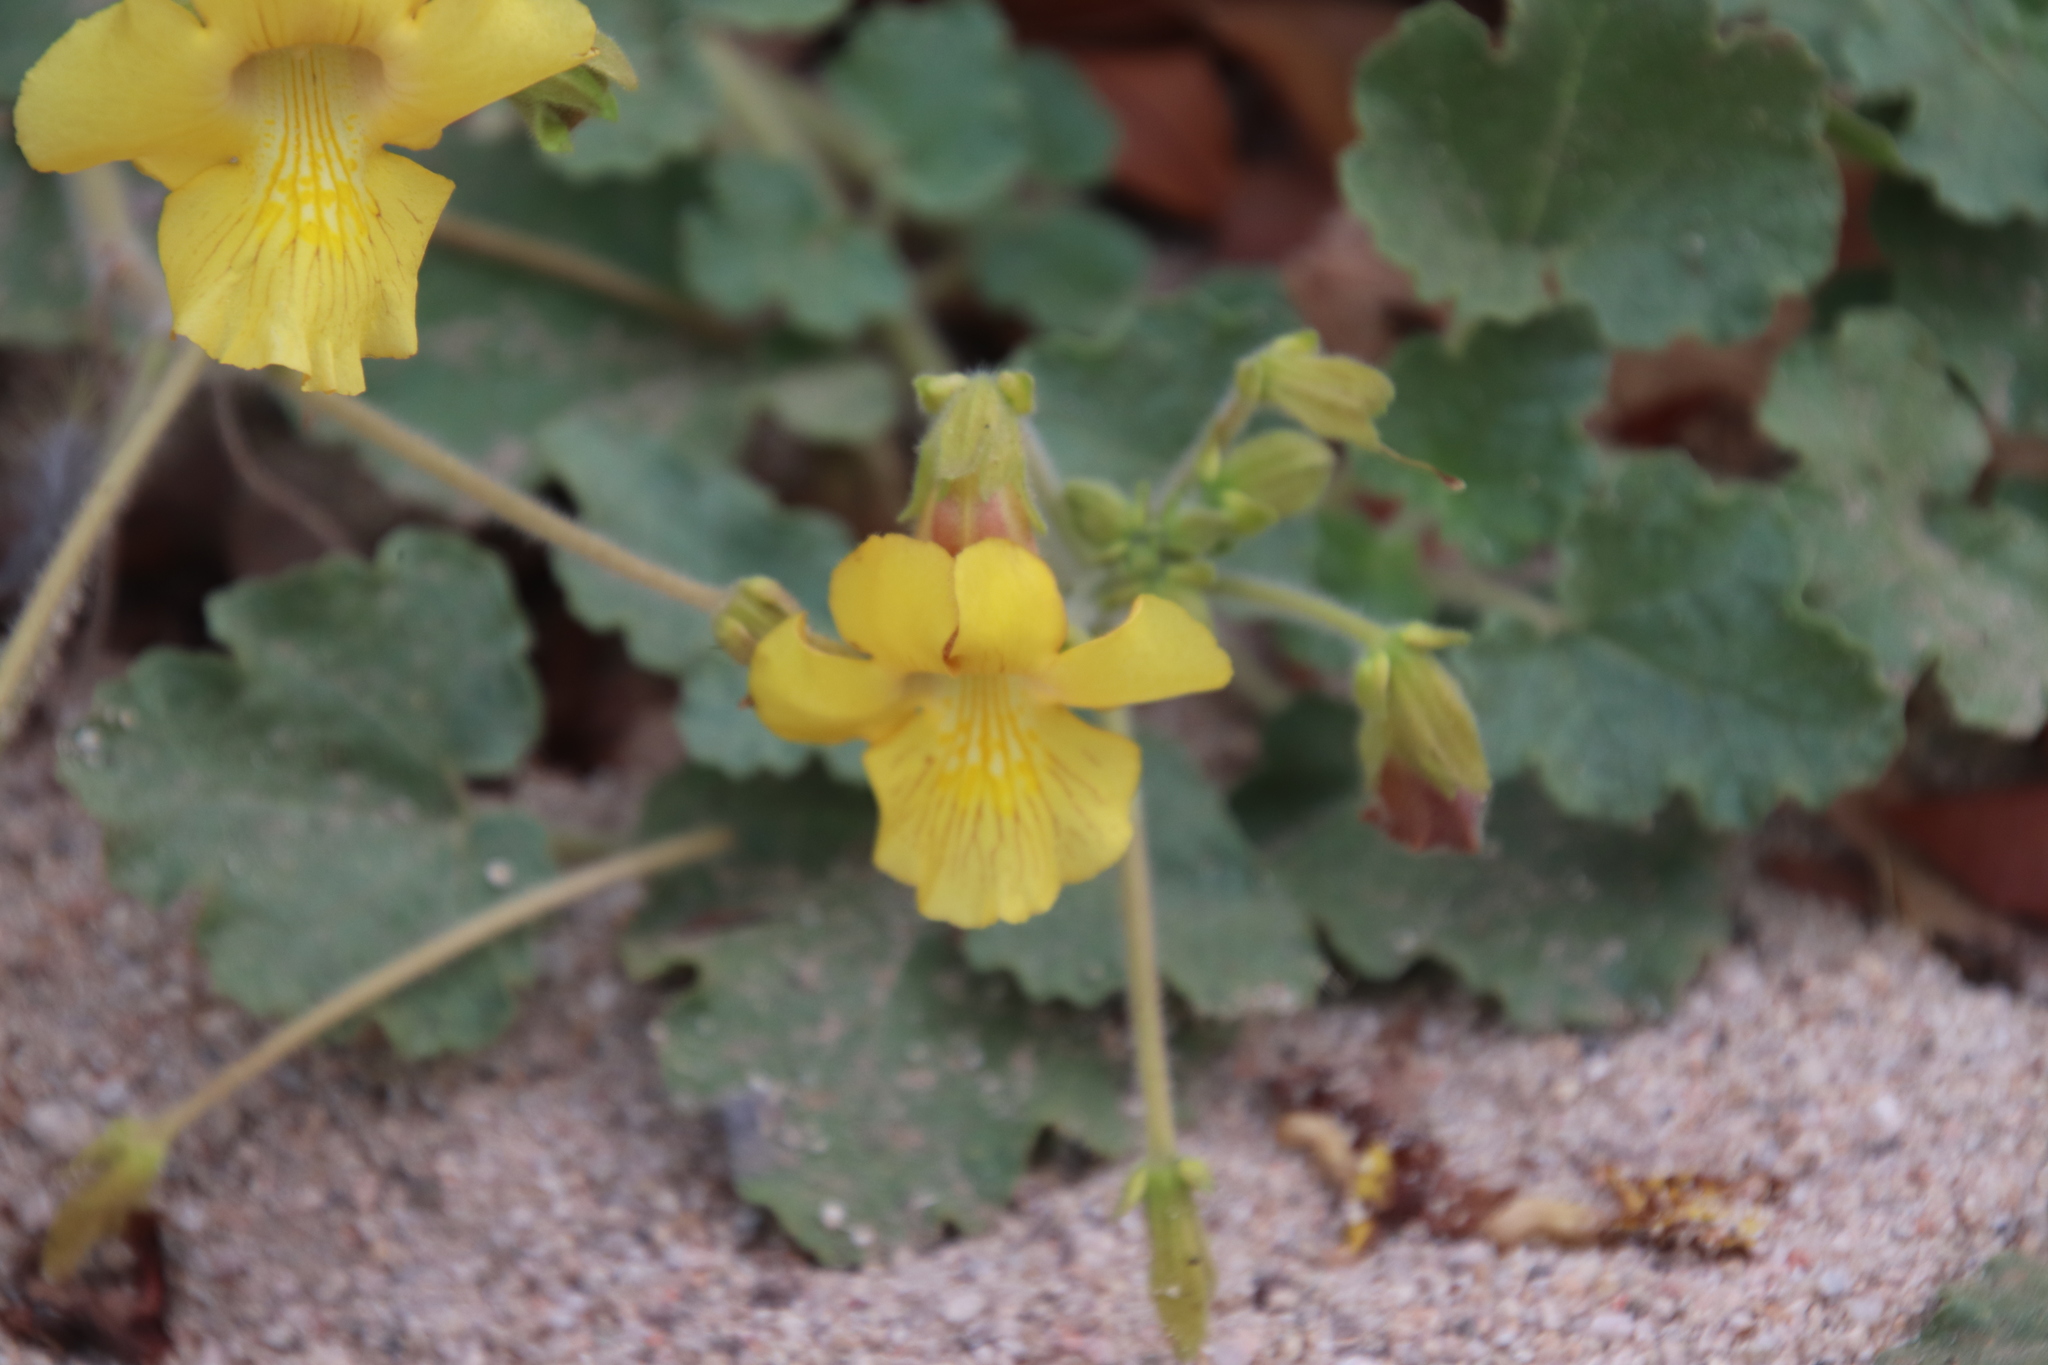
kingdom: Plantae
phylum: Tracheophyta
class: Magnoliopsida
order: Lamiales
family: Martyniaceae
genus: Proboscidea
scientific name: Proboscidea althaeifolia
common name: Desert unicorn-plant
